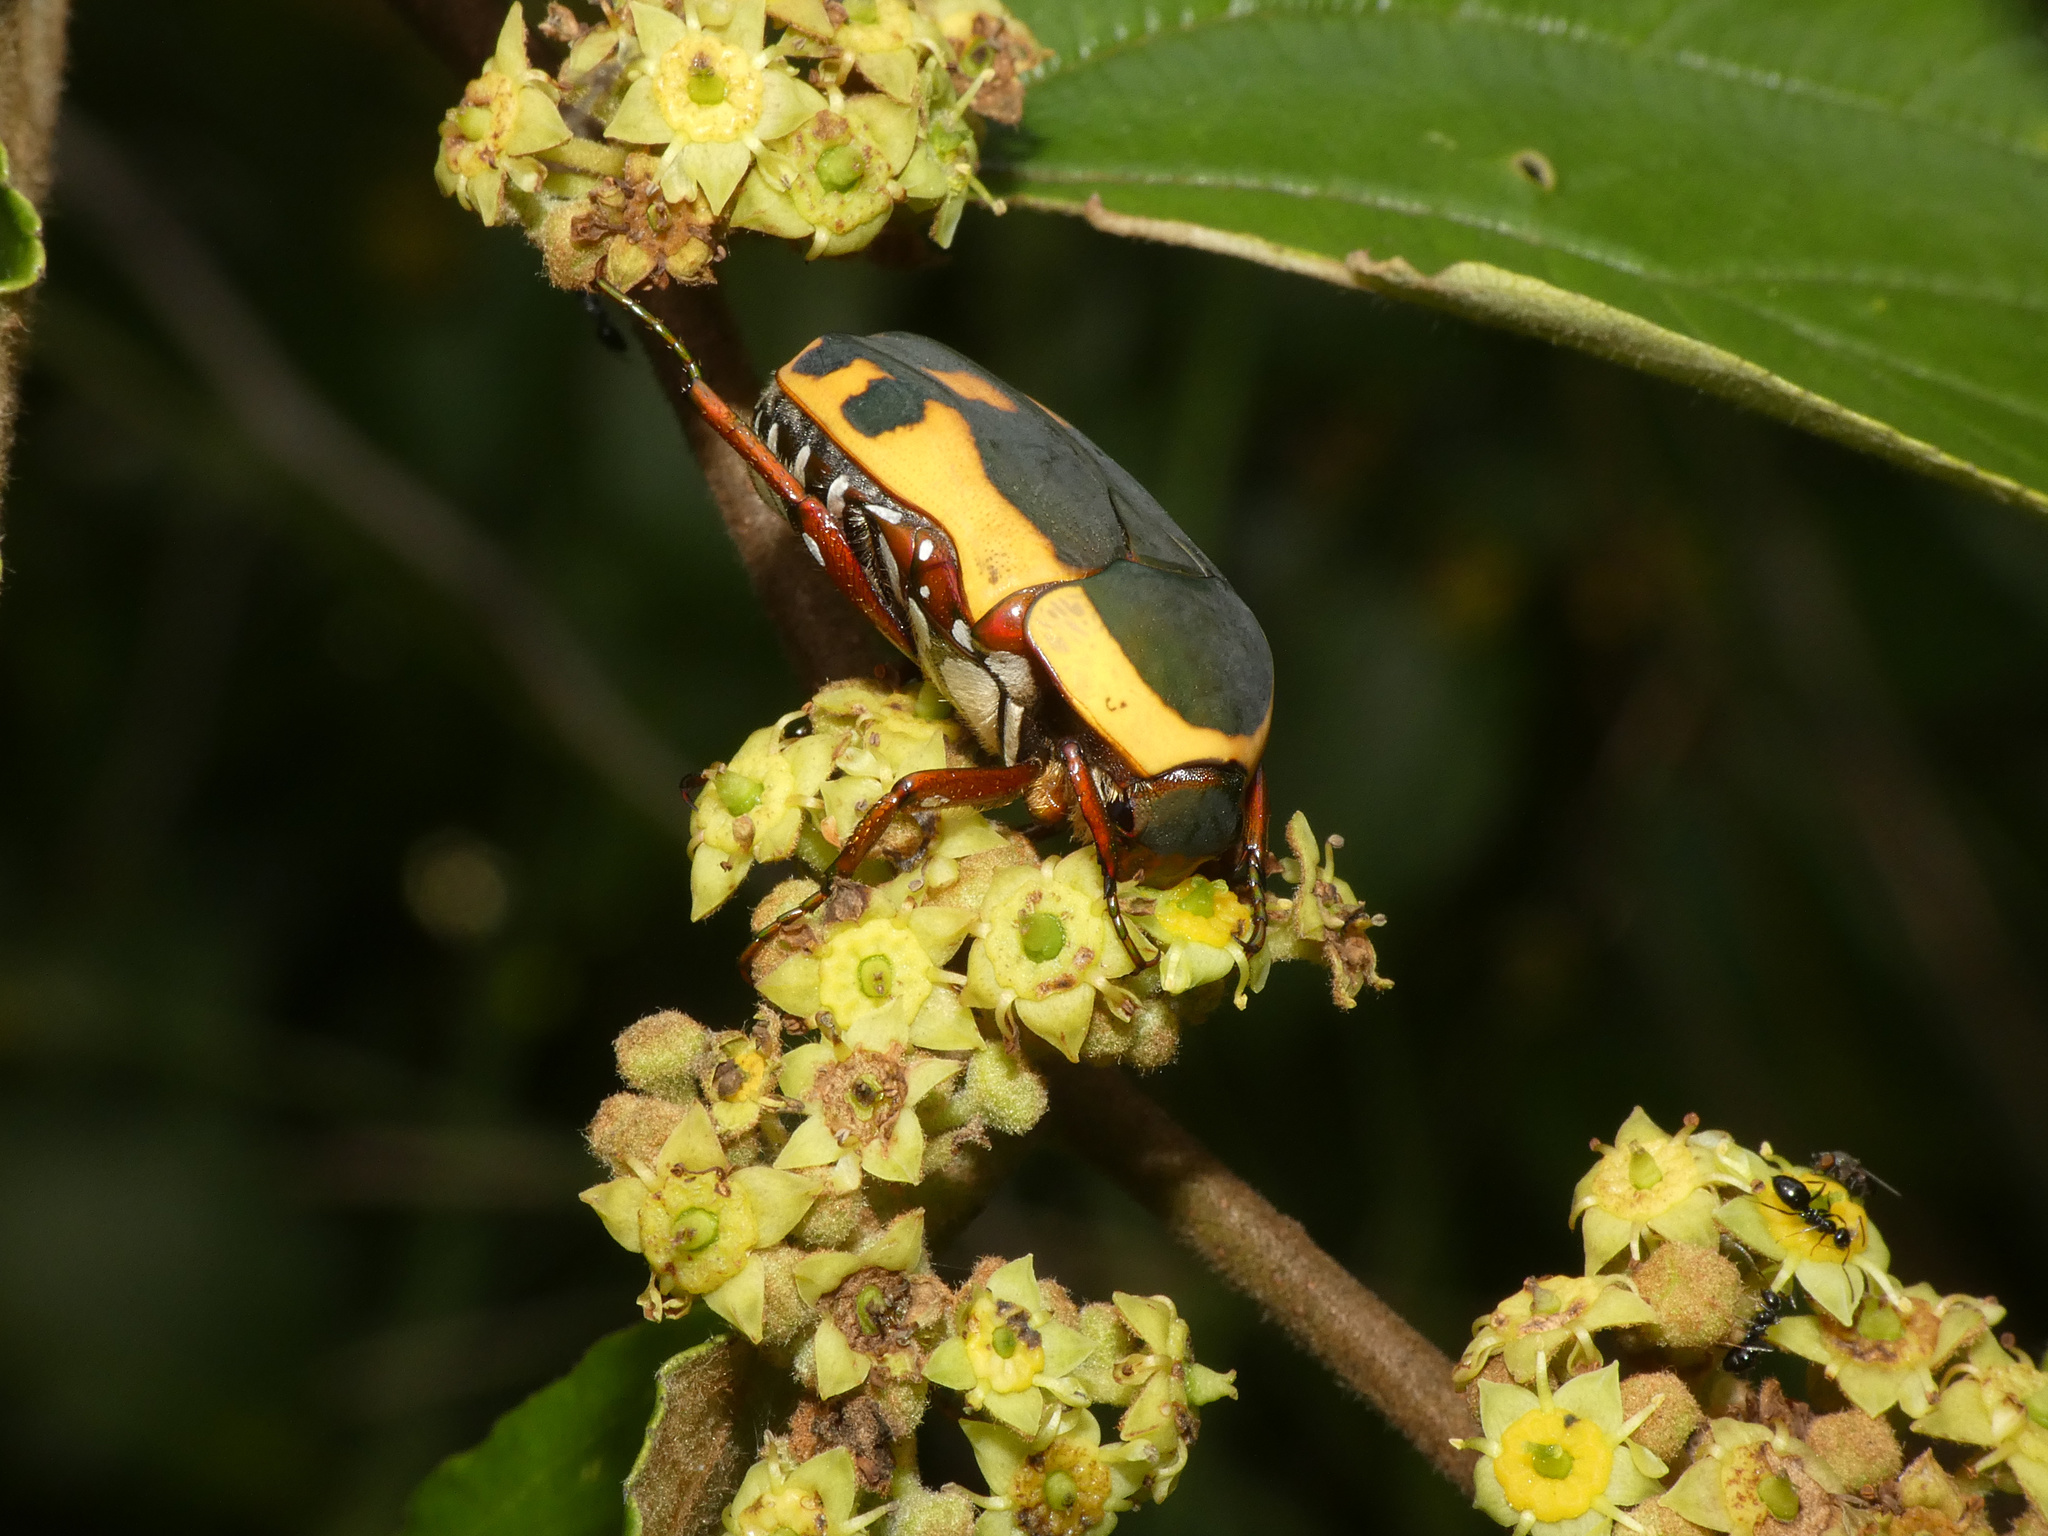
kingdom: Animalia
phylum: Arthropoda
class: Insecta
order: Coleoptera
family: Scarabaeidae
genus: Marmylida
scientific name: Marmylida impressa
